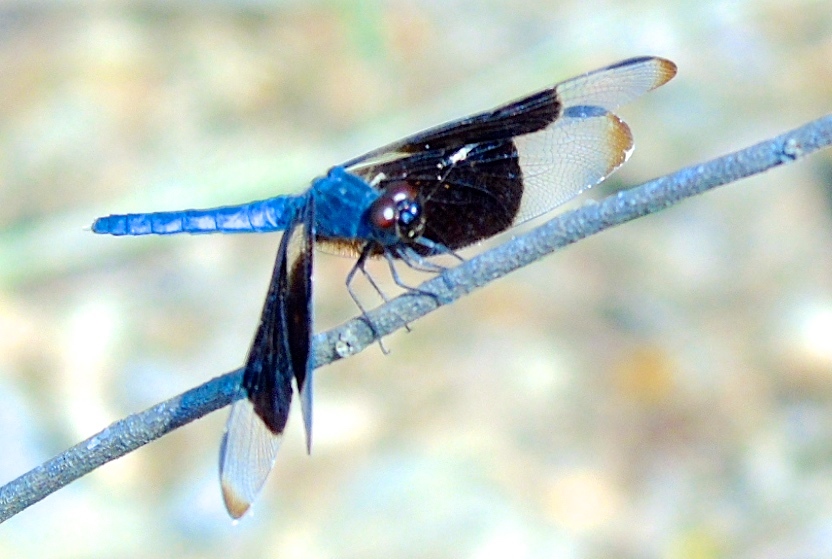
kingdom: Animalia
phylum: Arthropoda
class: Insecta
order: Odonata
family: Libellulidae
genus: Erythrodiplax
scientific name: Erythrodiplax funerea
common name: Black-winged dragonlet
